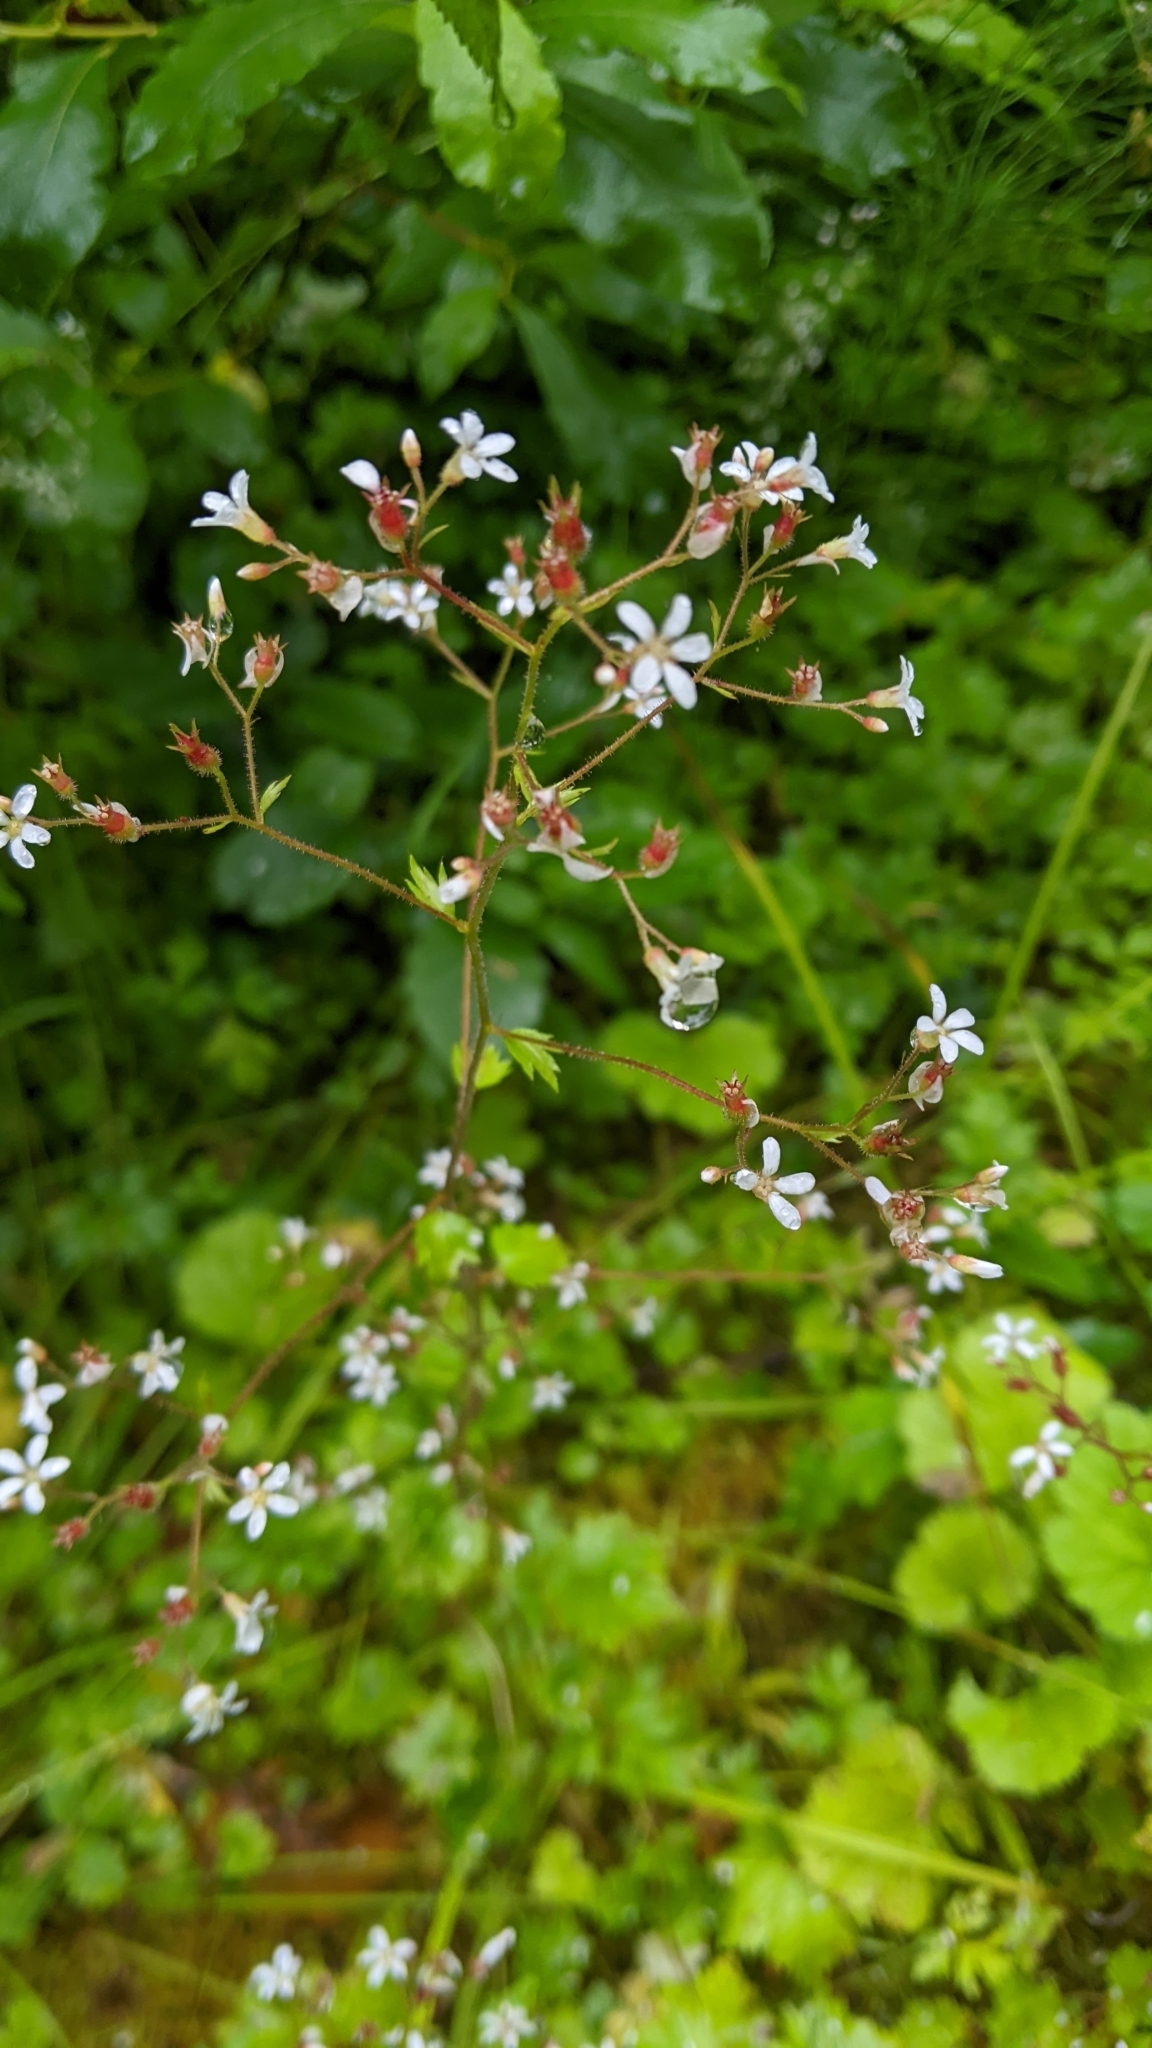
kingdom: Plantae
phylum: Tracheophyta
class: Magnoliopsida
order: Saxifragales
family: Saxifragaceae
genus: Boykinia
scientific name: Boykinia occidentalis
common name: Coast boykinia
